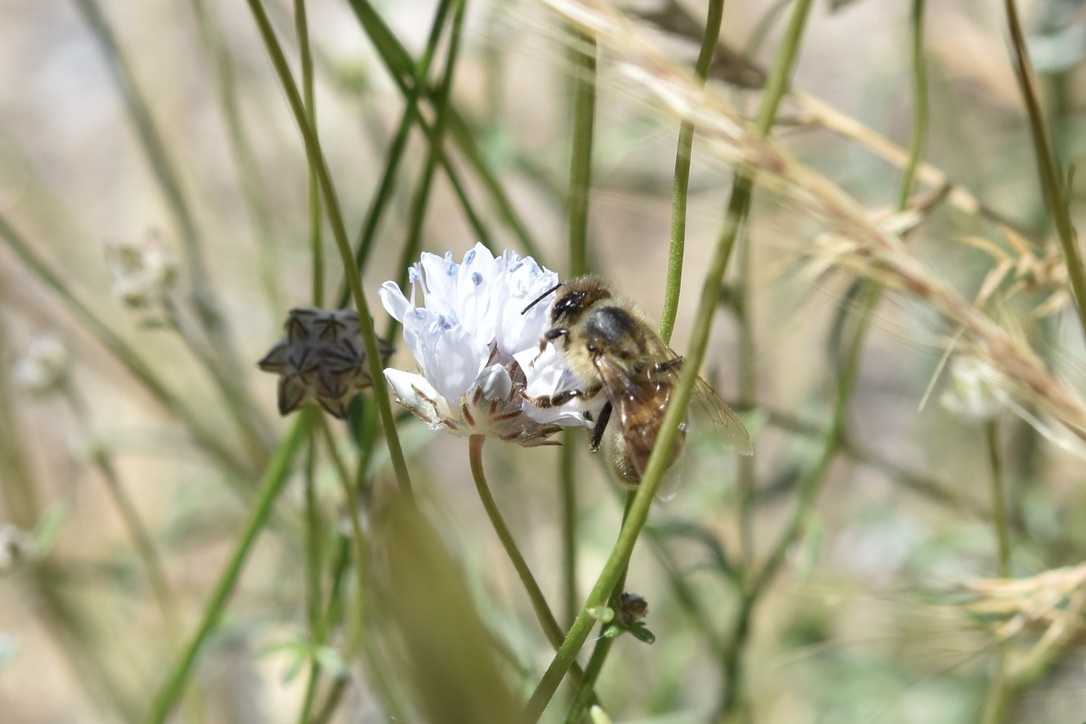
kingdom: Animalia
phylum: Arthropoda
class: Insecta
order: Hymenoptera
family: Apidae
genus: Apis
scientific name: Apis mellifera
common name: Honey bee
